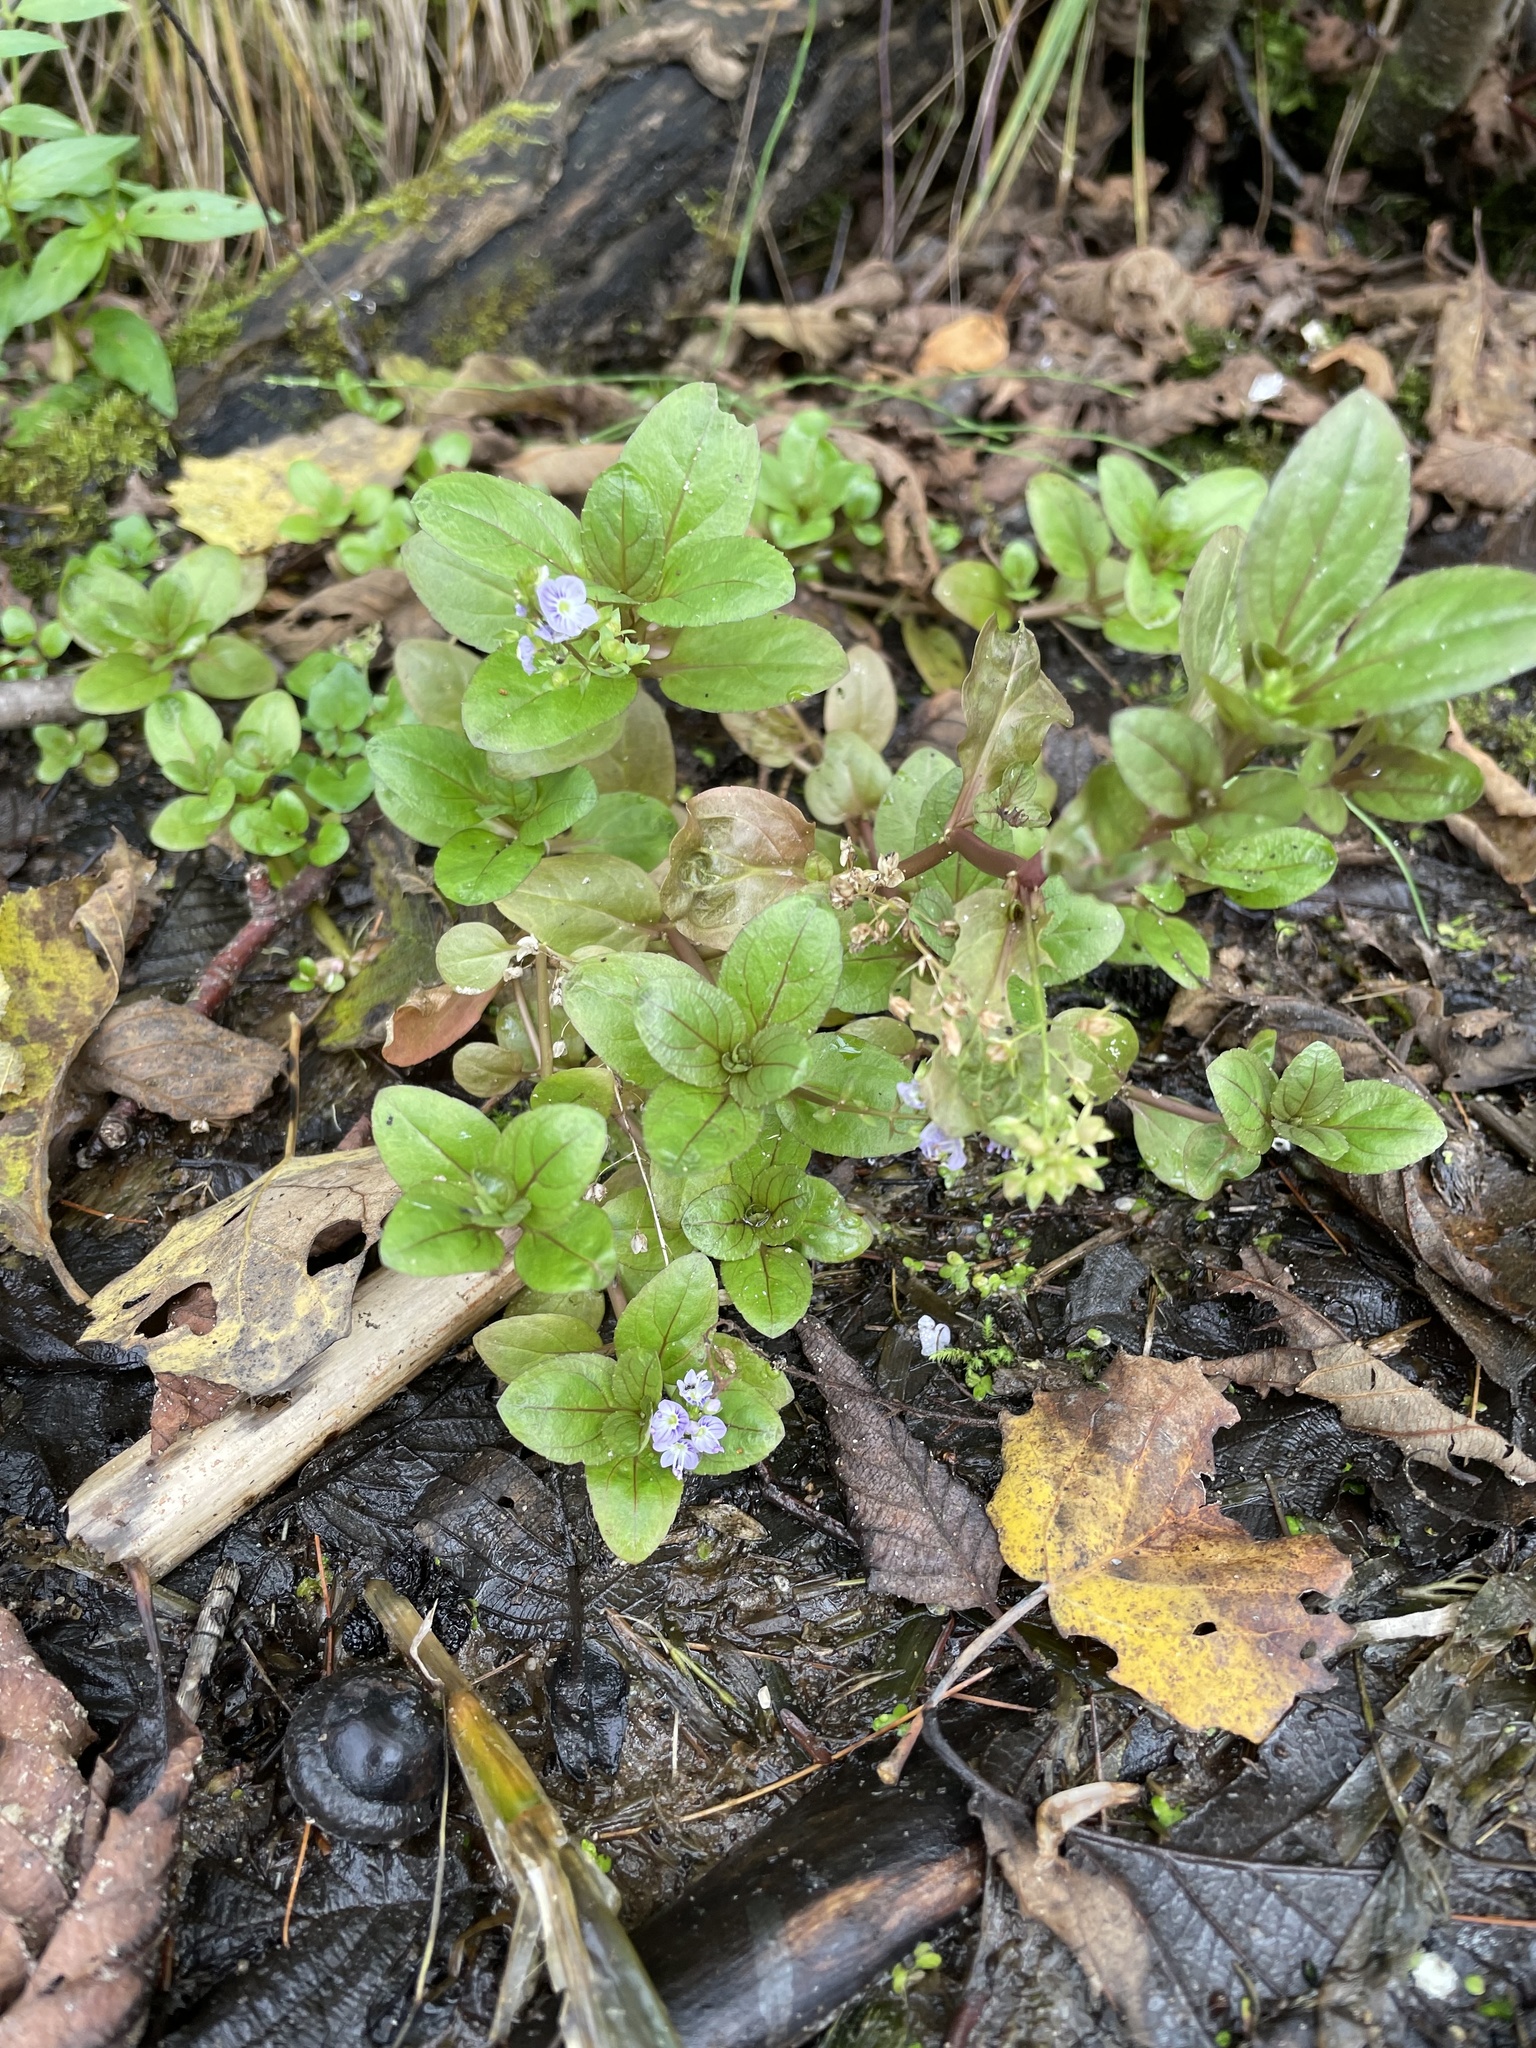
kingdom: Plantae
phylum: Tracheophyta
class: Magnoliopsida
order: Lamiales
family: Plantaginaceae
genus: Veronica
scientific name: Veronica americana
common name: American brooklime
